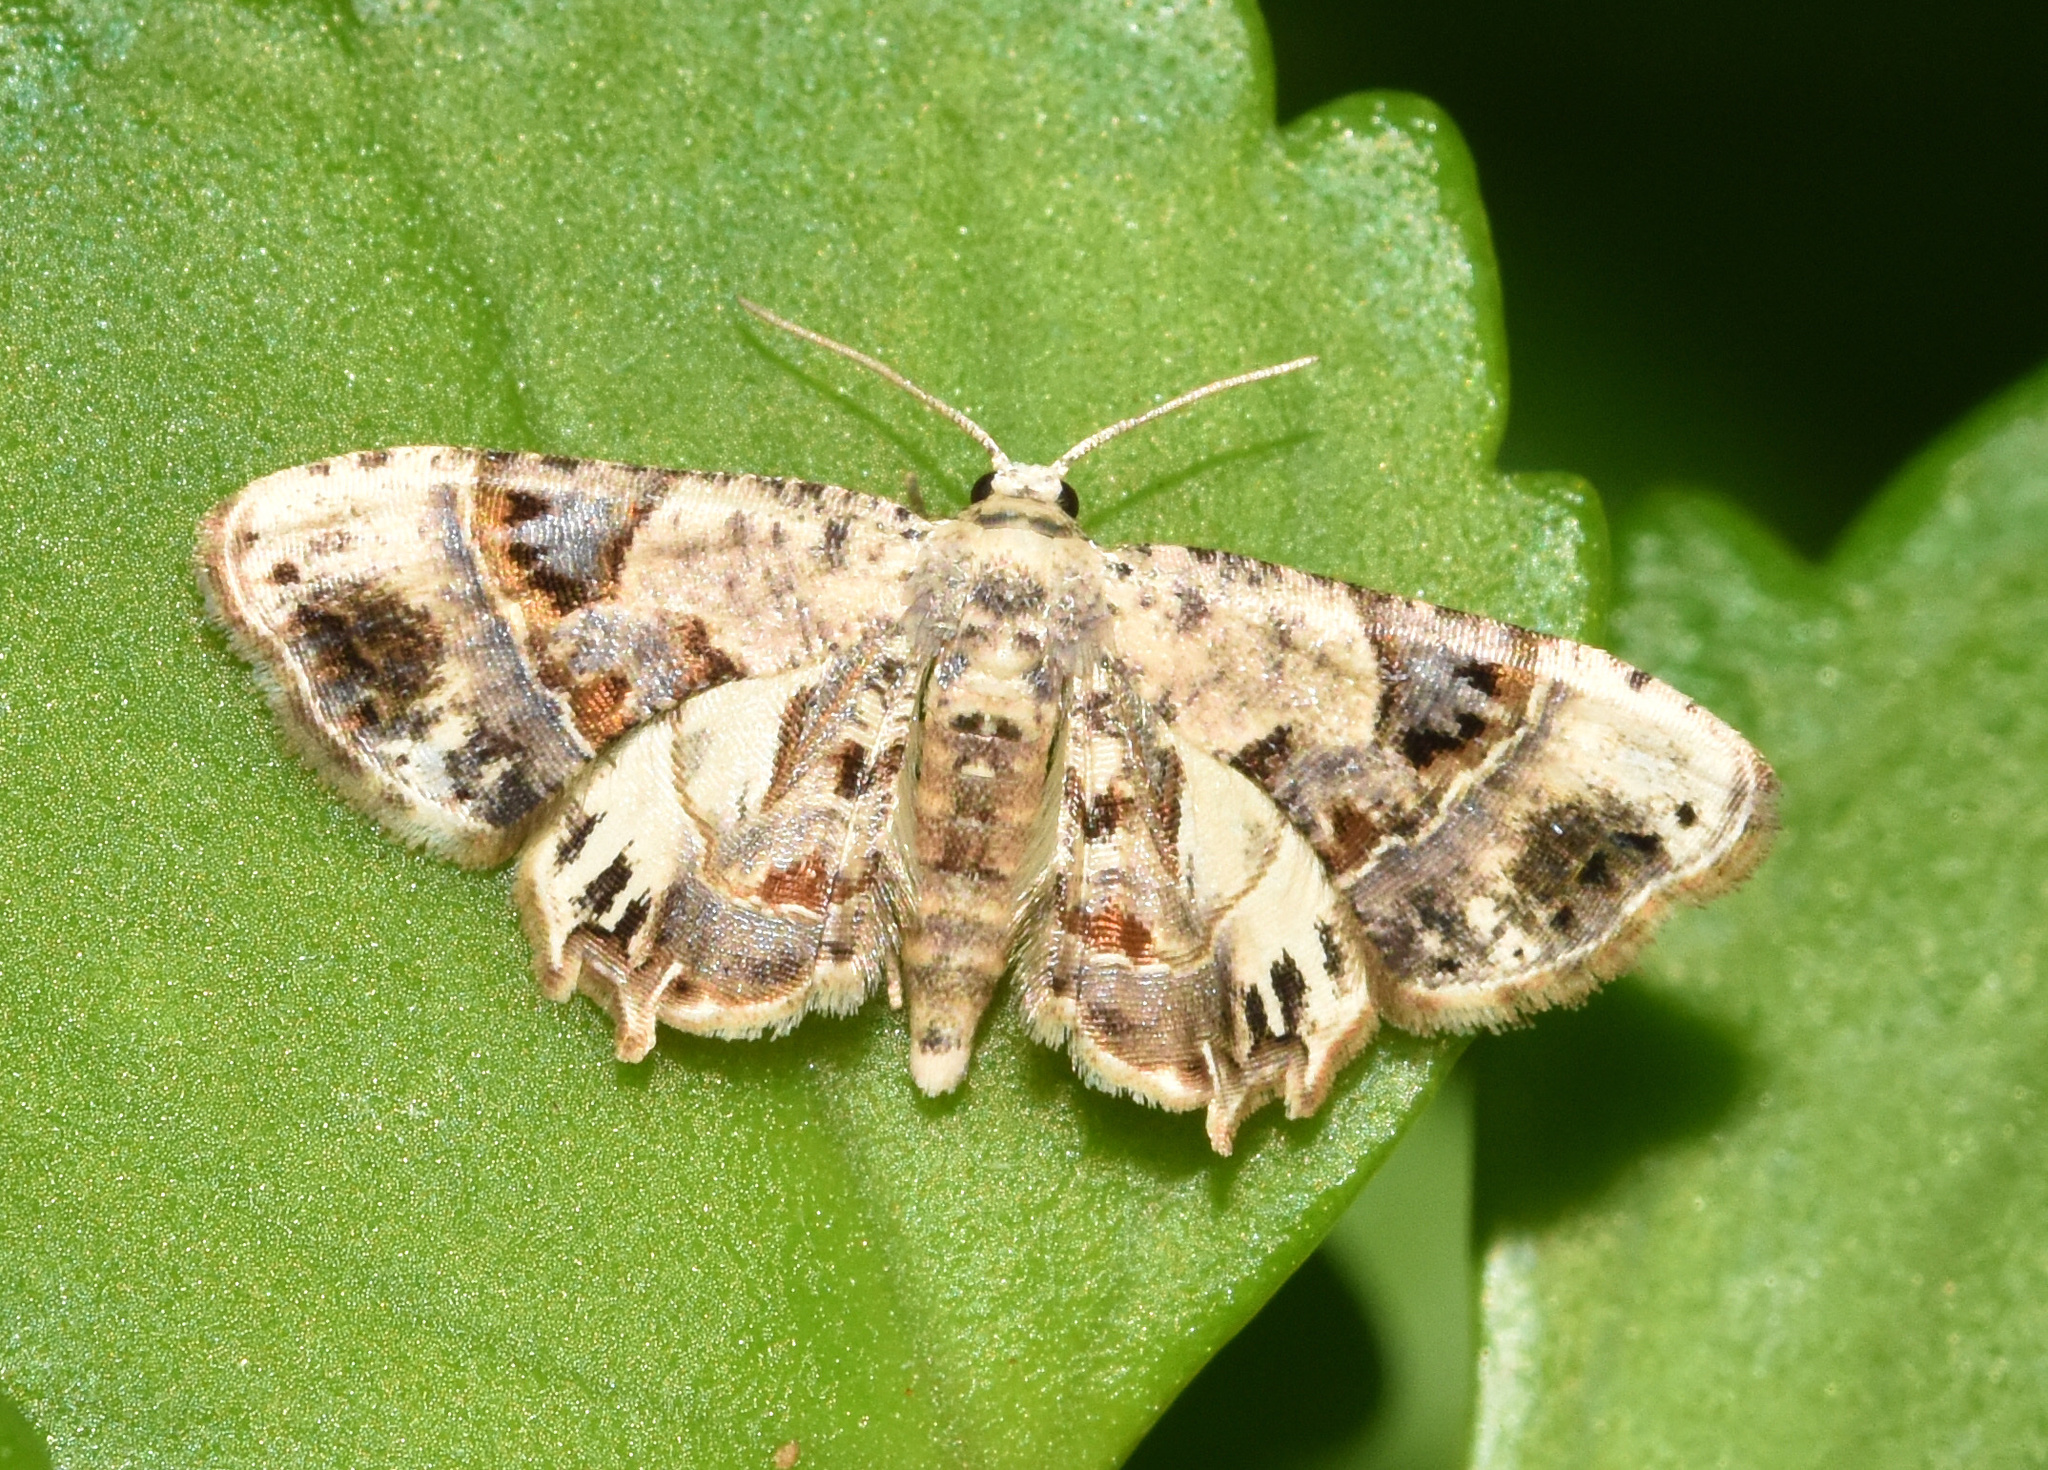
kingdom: Animalia
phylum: Arthropoda
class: Insecta
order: Lepidoptera
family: Uraniidae
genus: Leucoplema
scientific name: Leucoplema dohertyii
